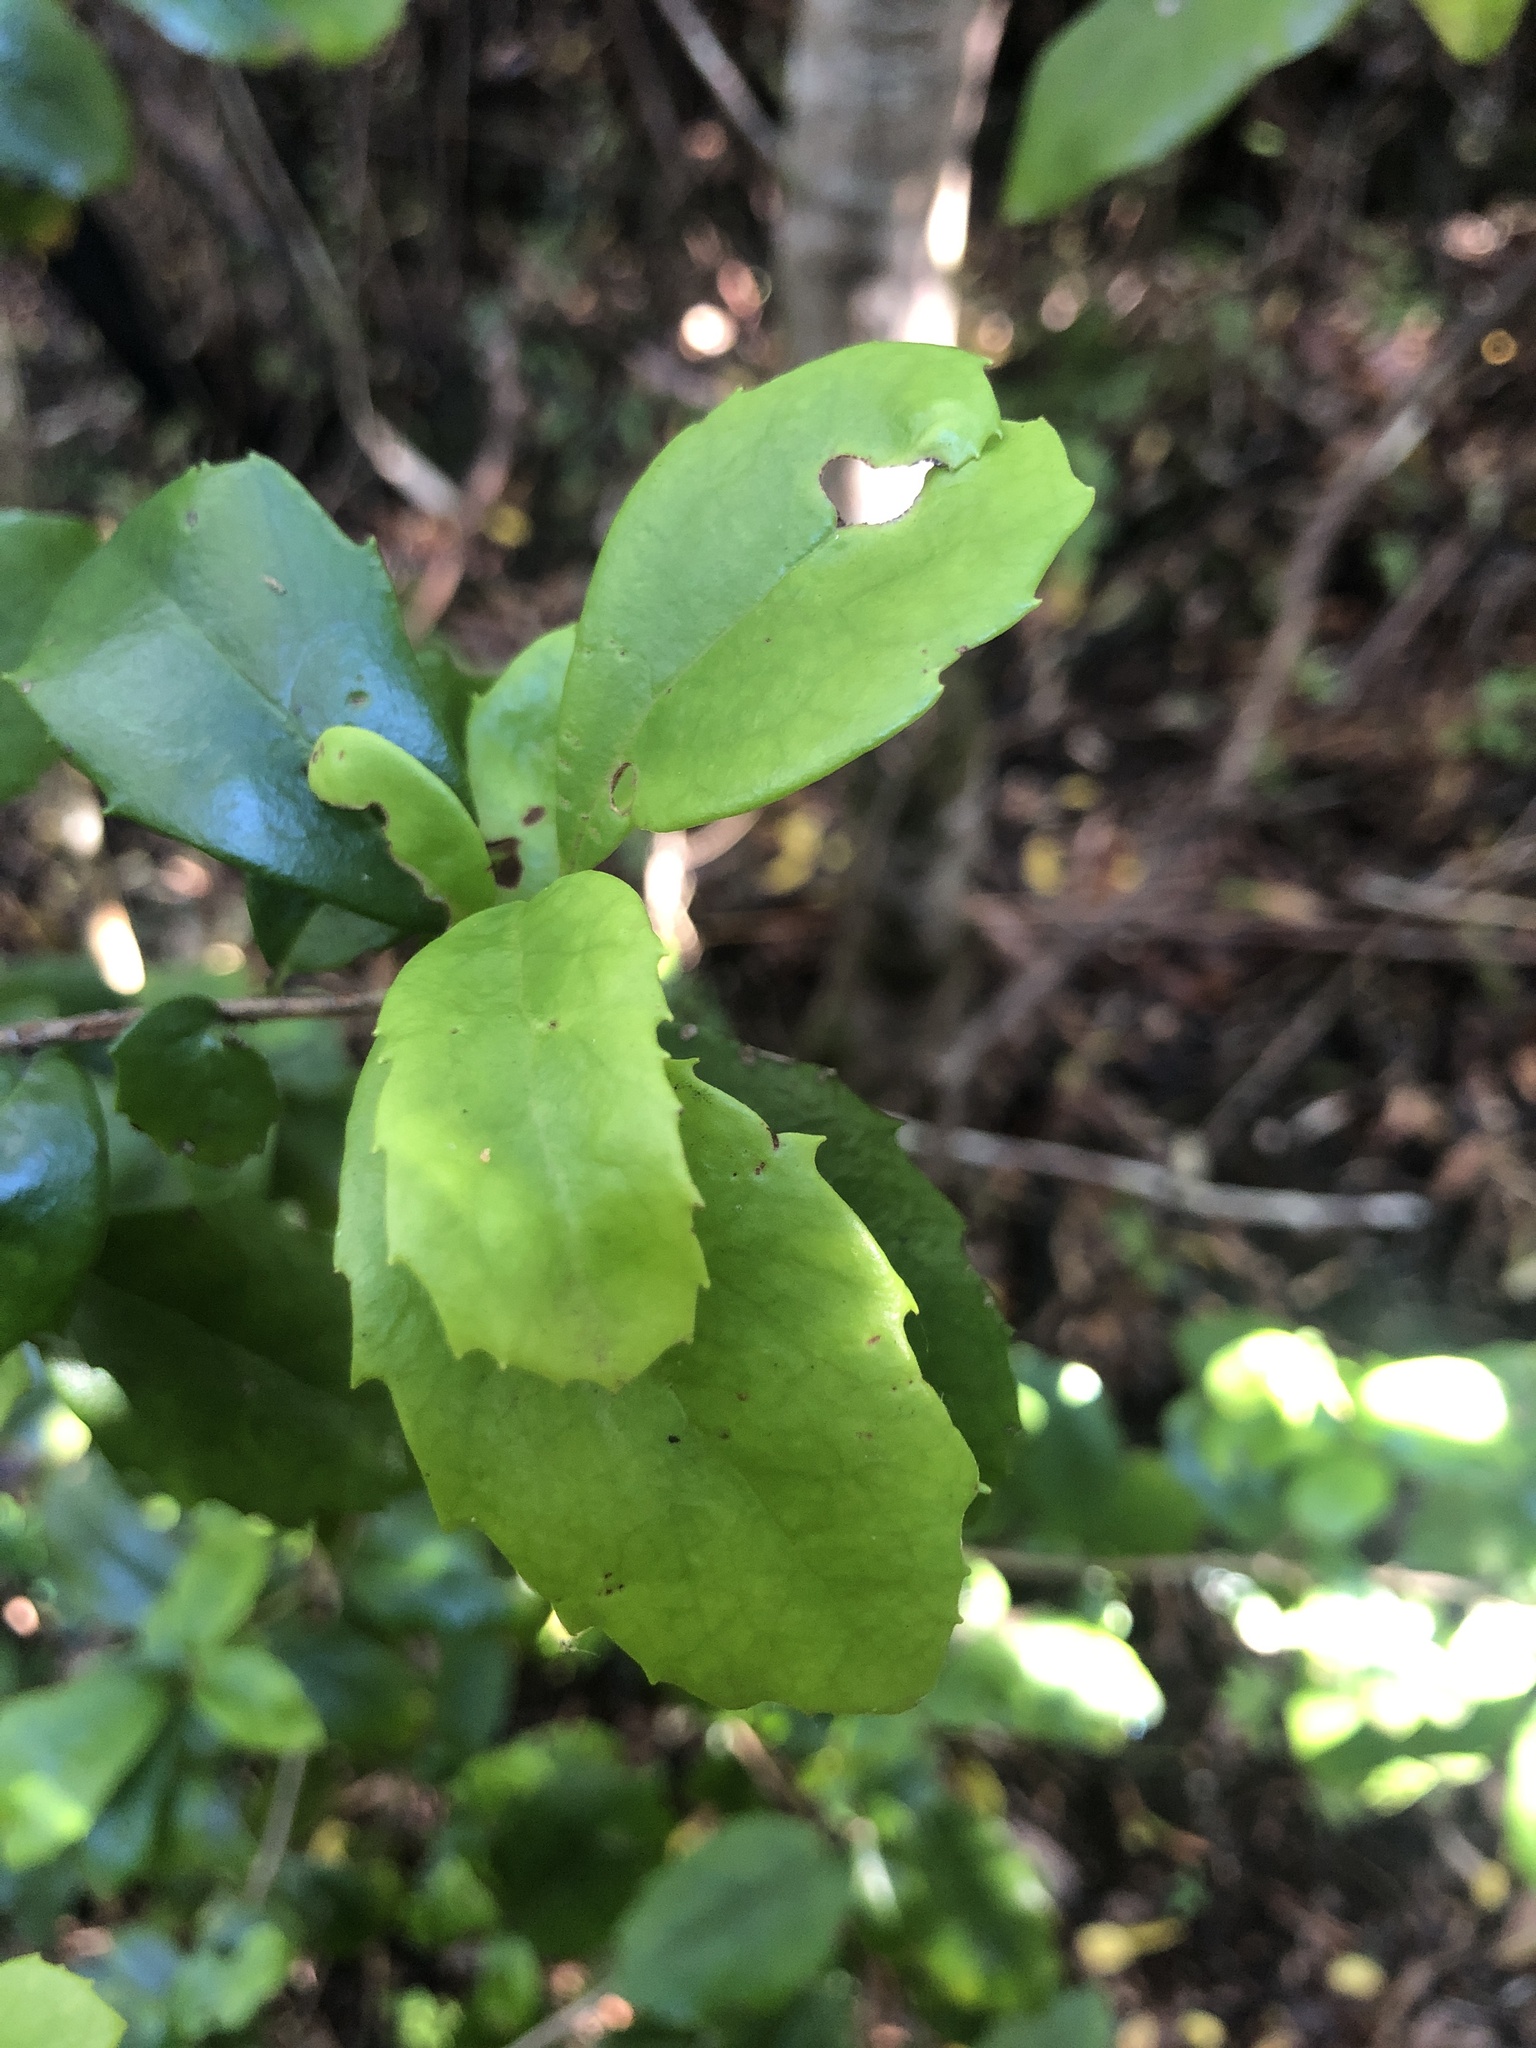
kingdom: Plantae
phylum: Tracheophyta
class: Magnoliopsida
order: Proteales
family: Proteaceae
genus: Lomatia
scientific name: Lomatia dentata
